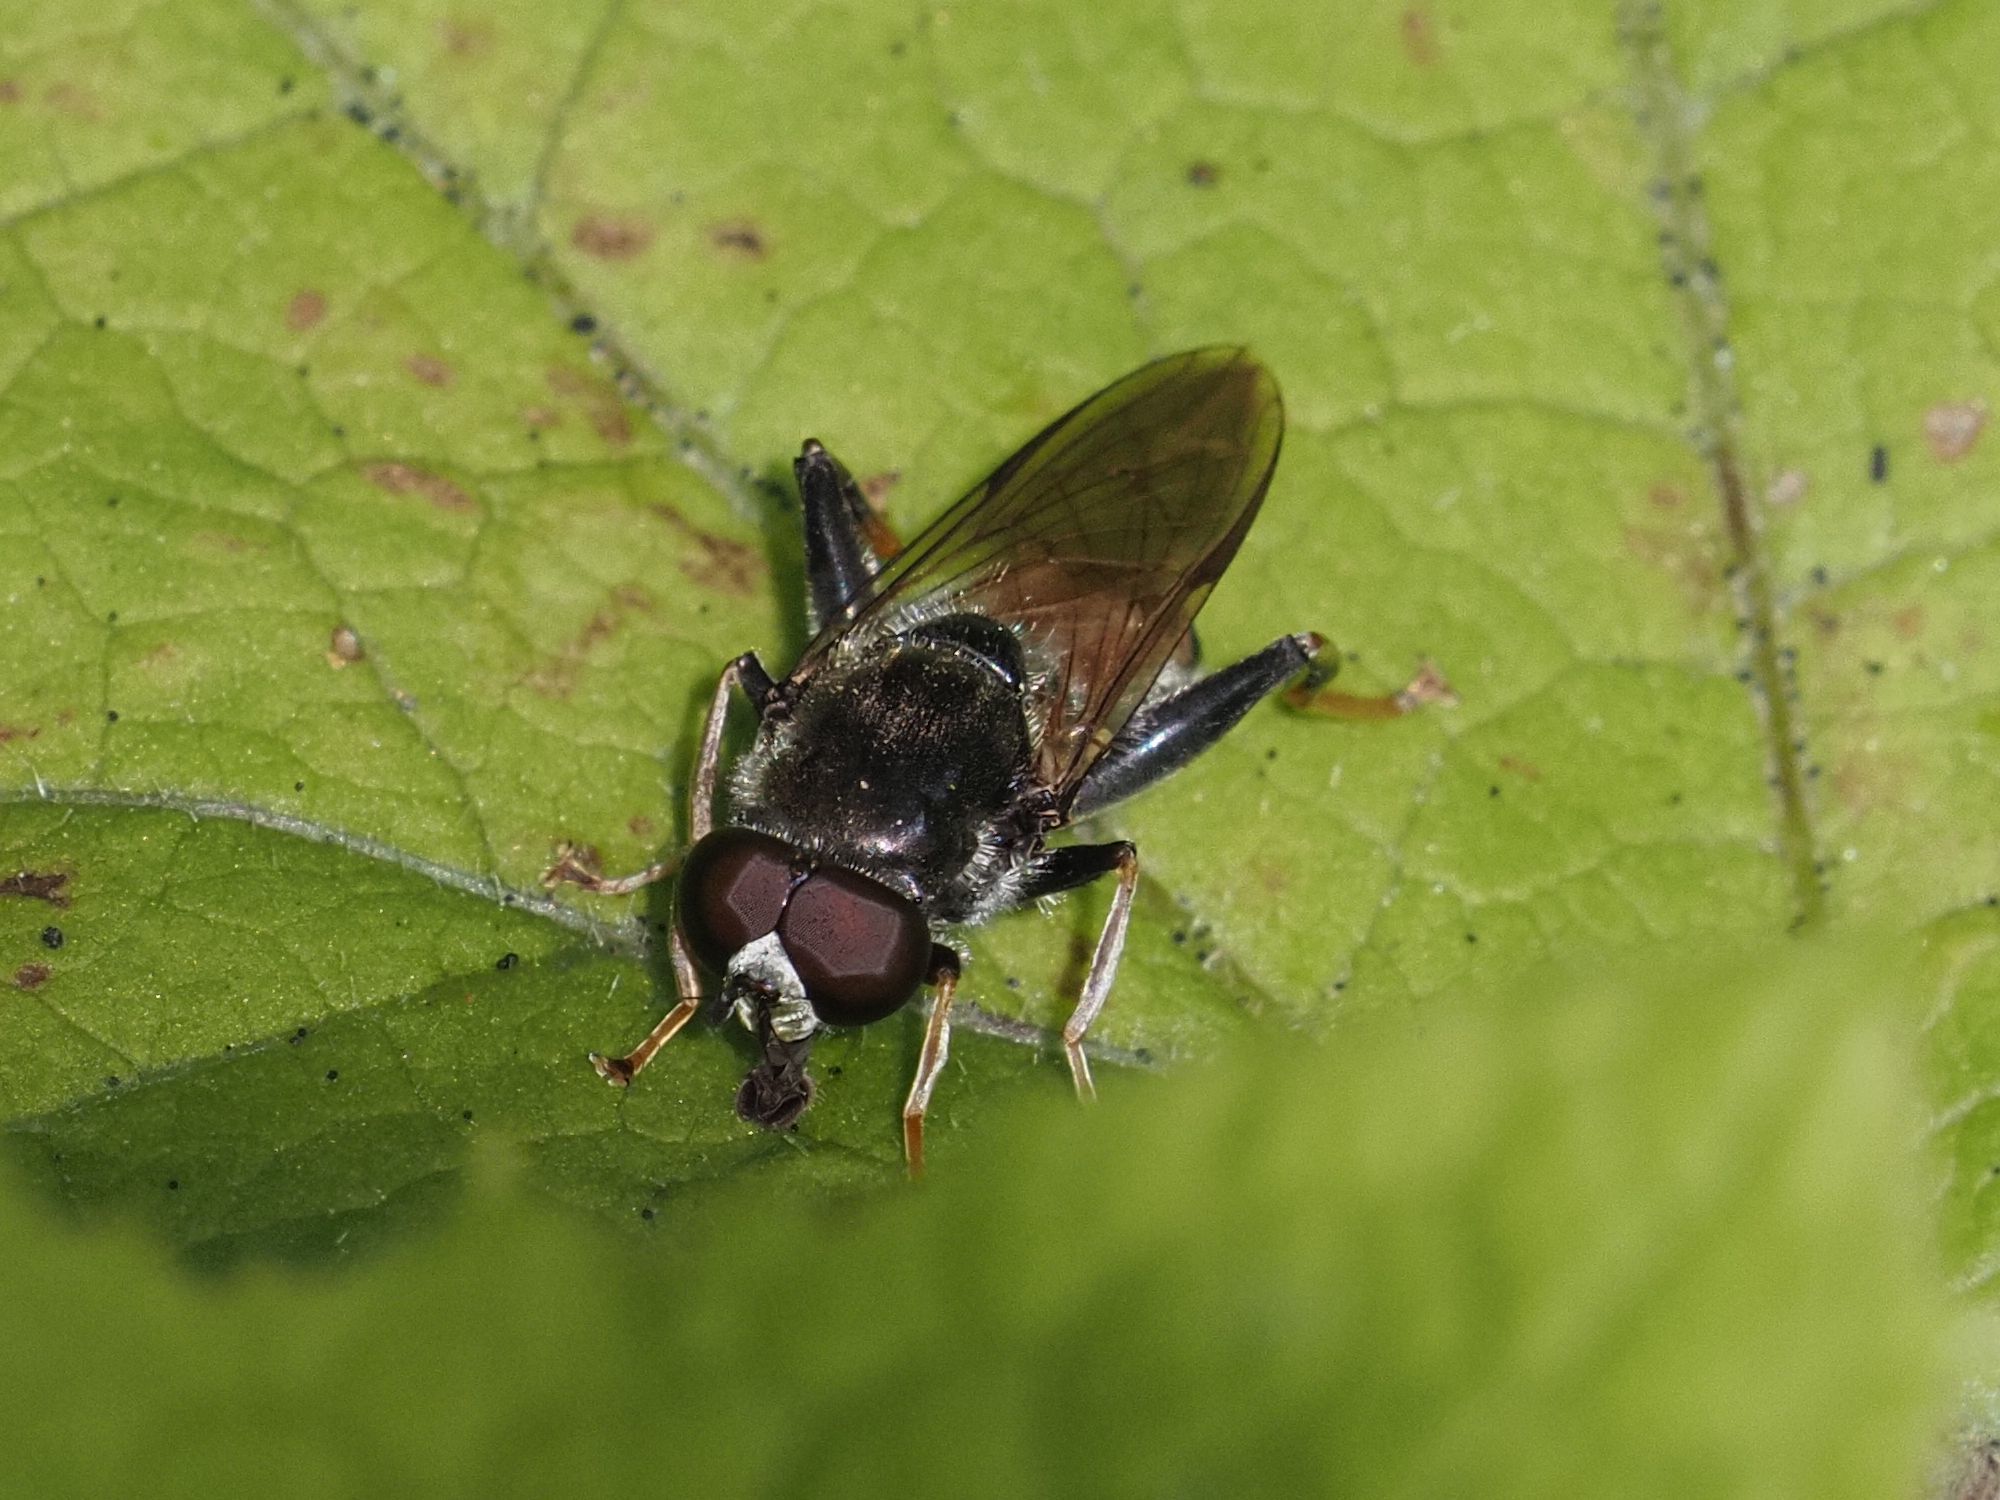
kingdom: Animalia
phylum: Arthropoda
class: Insecta
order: Diptera
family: Syrphidae
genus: Xylota
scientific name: Xylota segnis
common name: Brown-toed forest fly
